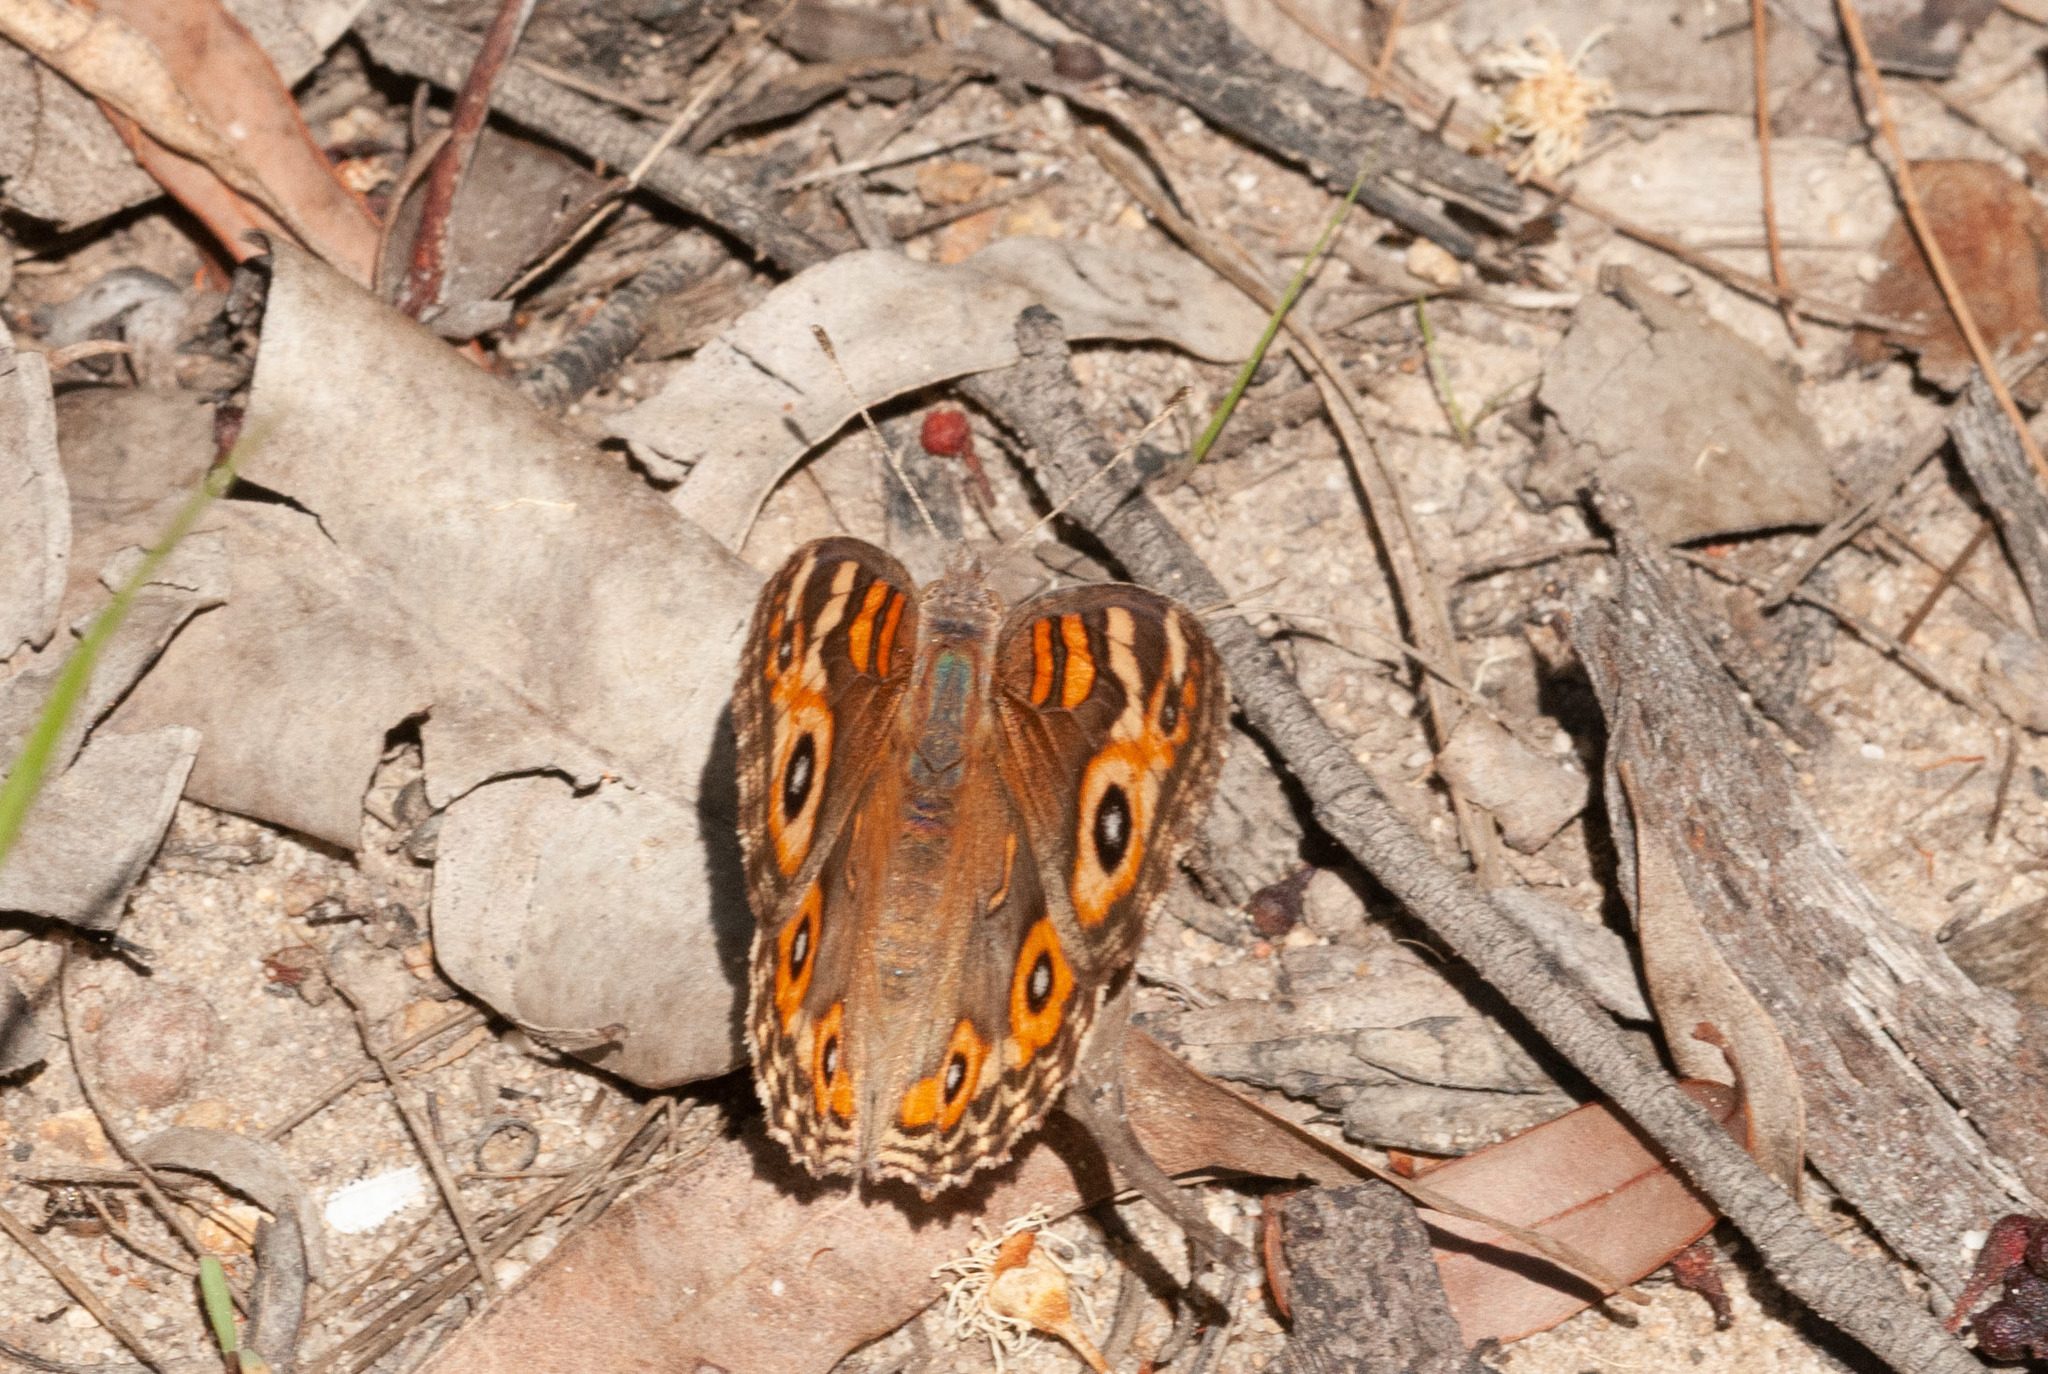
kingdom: Animalia
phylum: Arthropoda
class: Insecta
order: Lepidoptera
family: Nymphalidae
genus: Junonia
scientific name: Junonia villida
